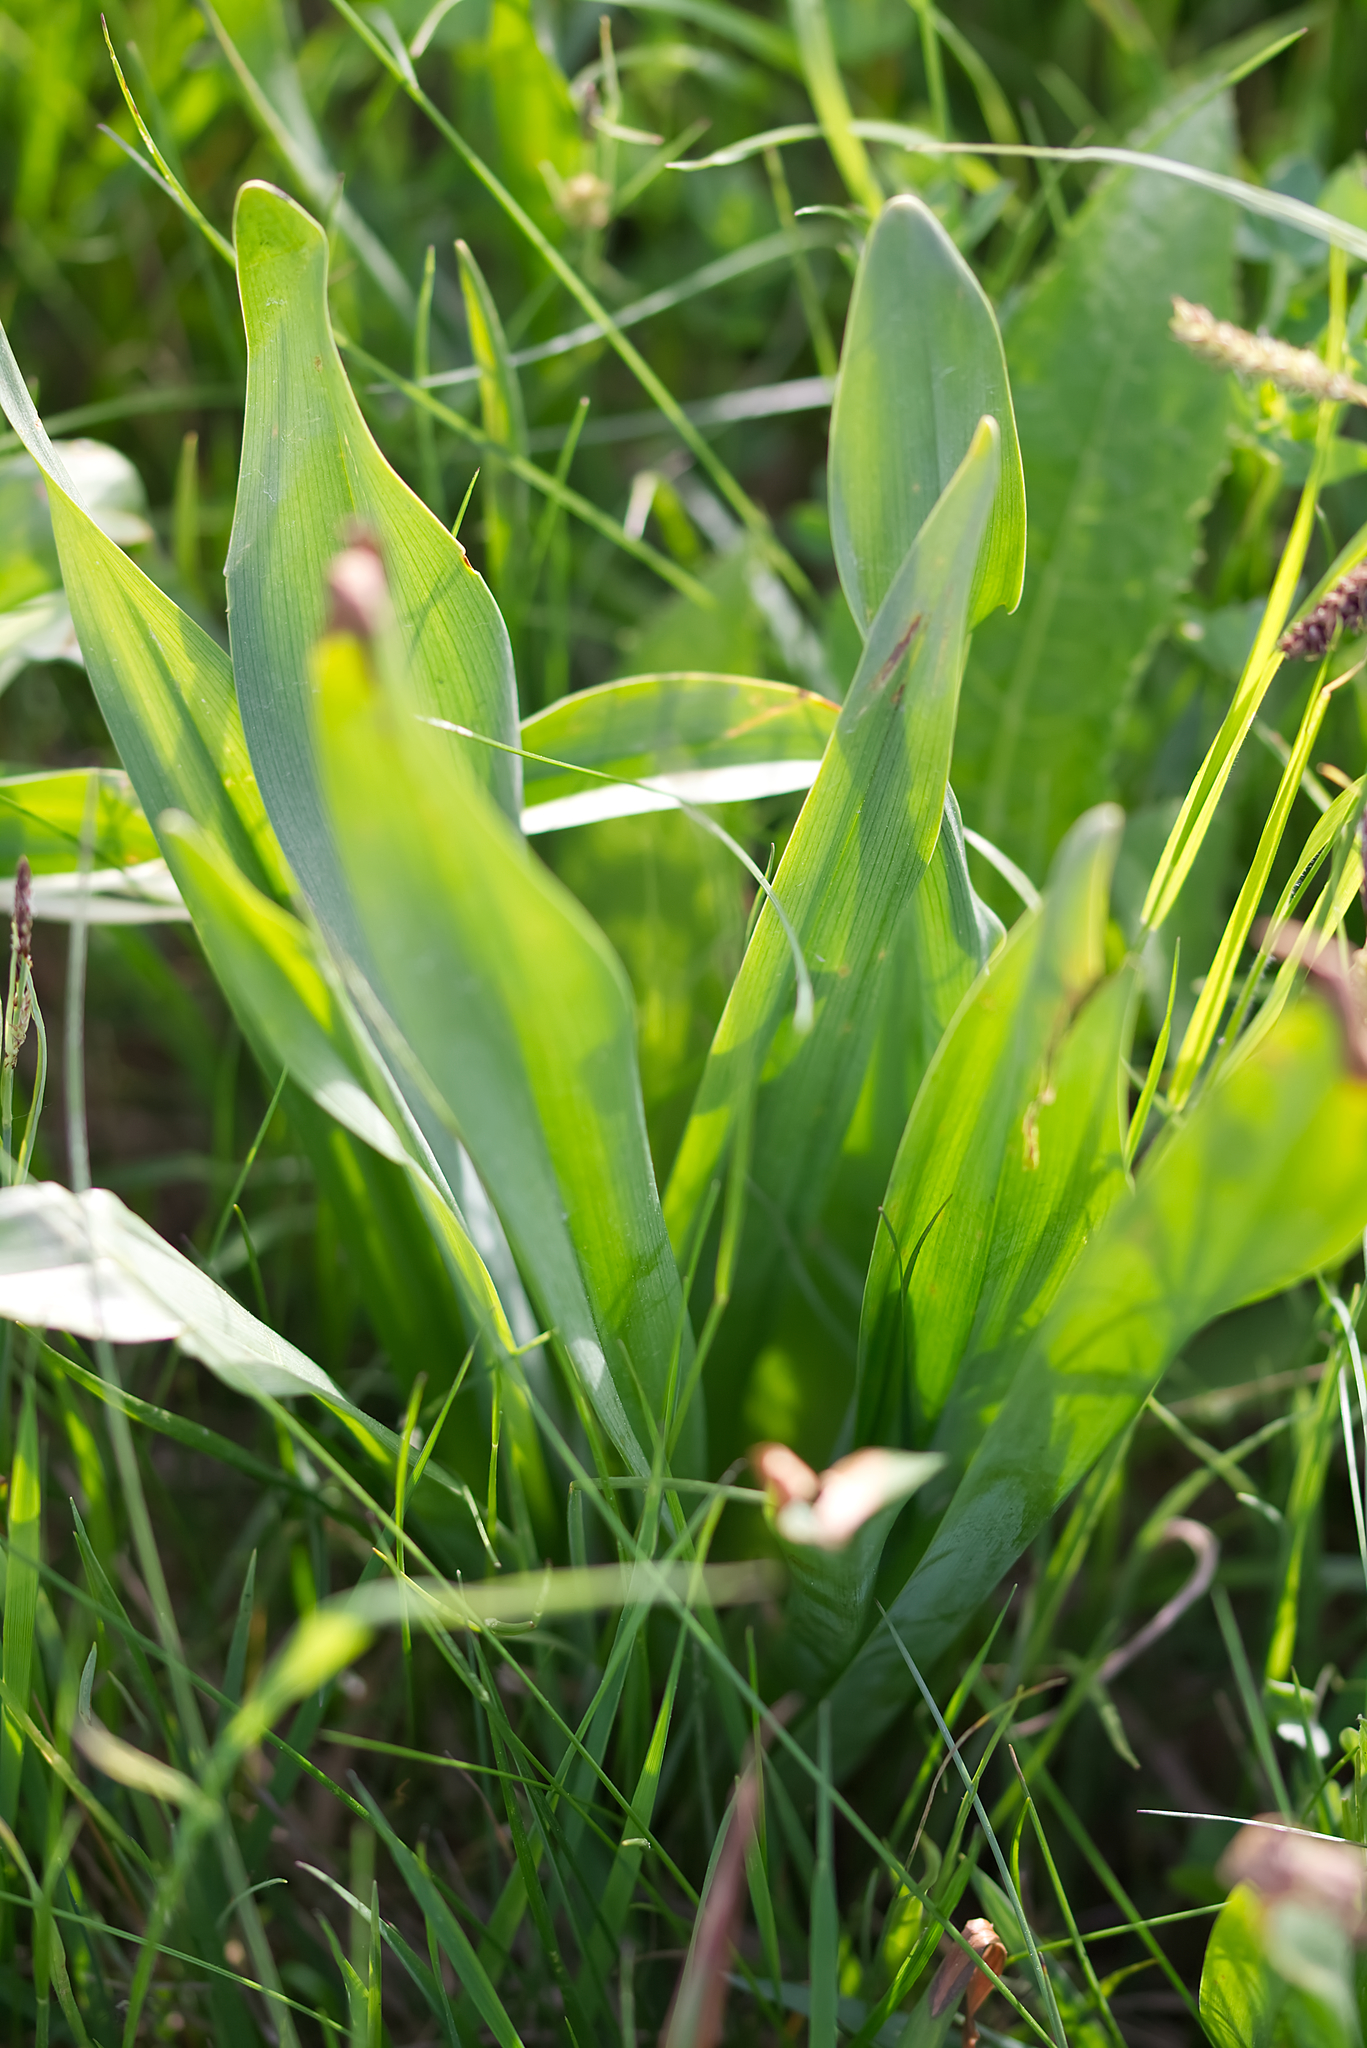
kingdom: Plantae
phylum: Tracheophyta
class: Liliopsida
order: Liliales
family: Colchicaceae
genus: Colchicum
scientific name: Colchicum autumnale
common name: Autumn crocus
